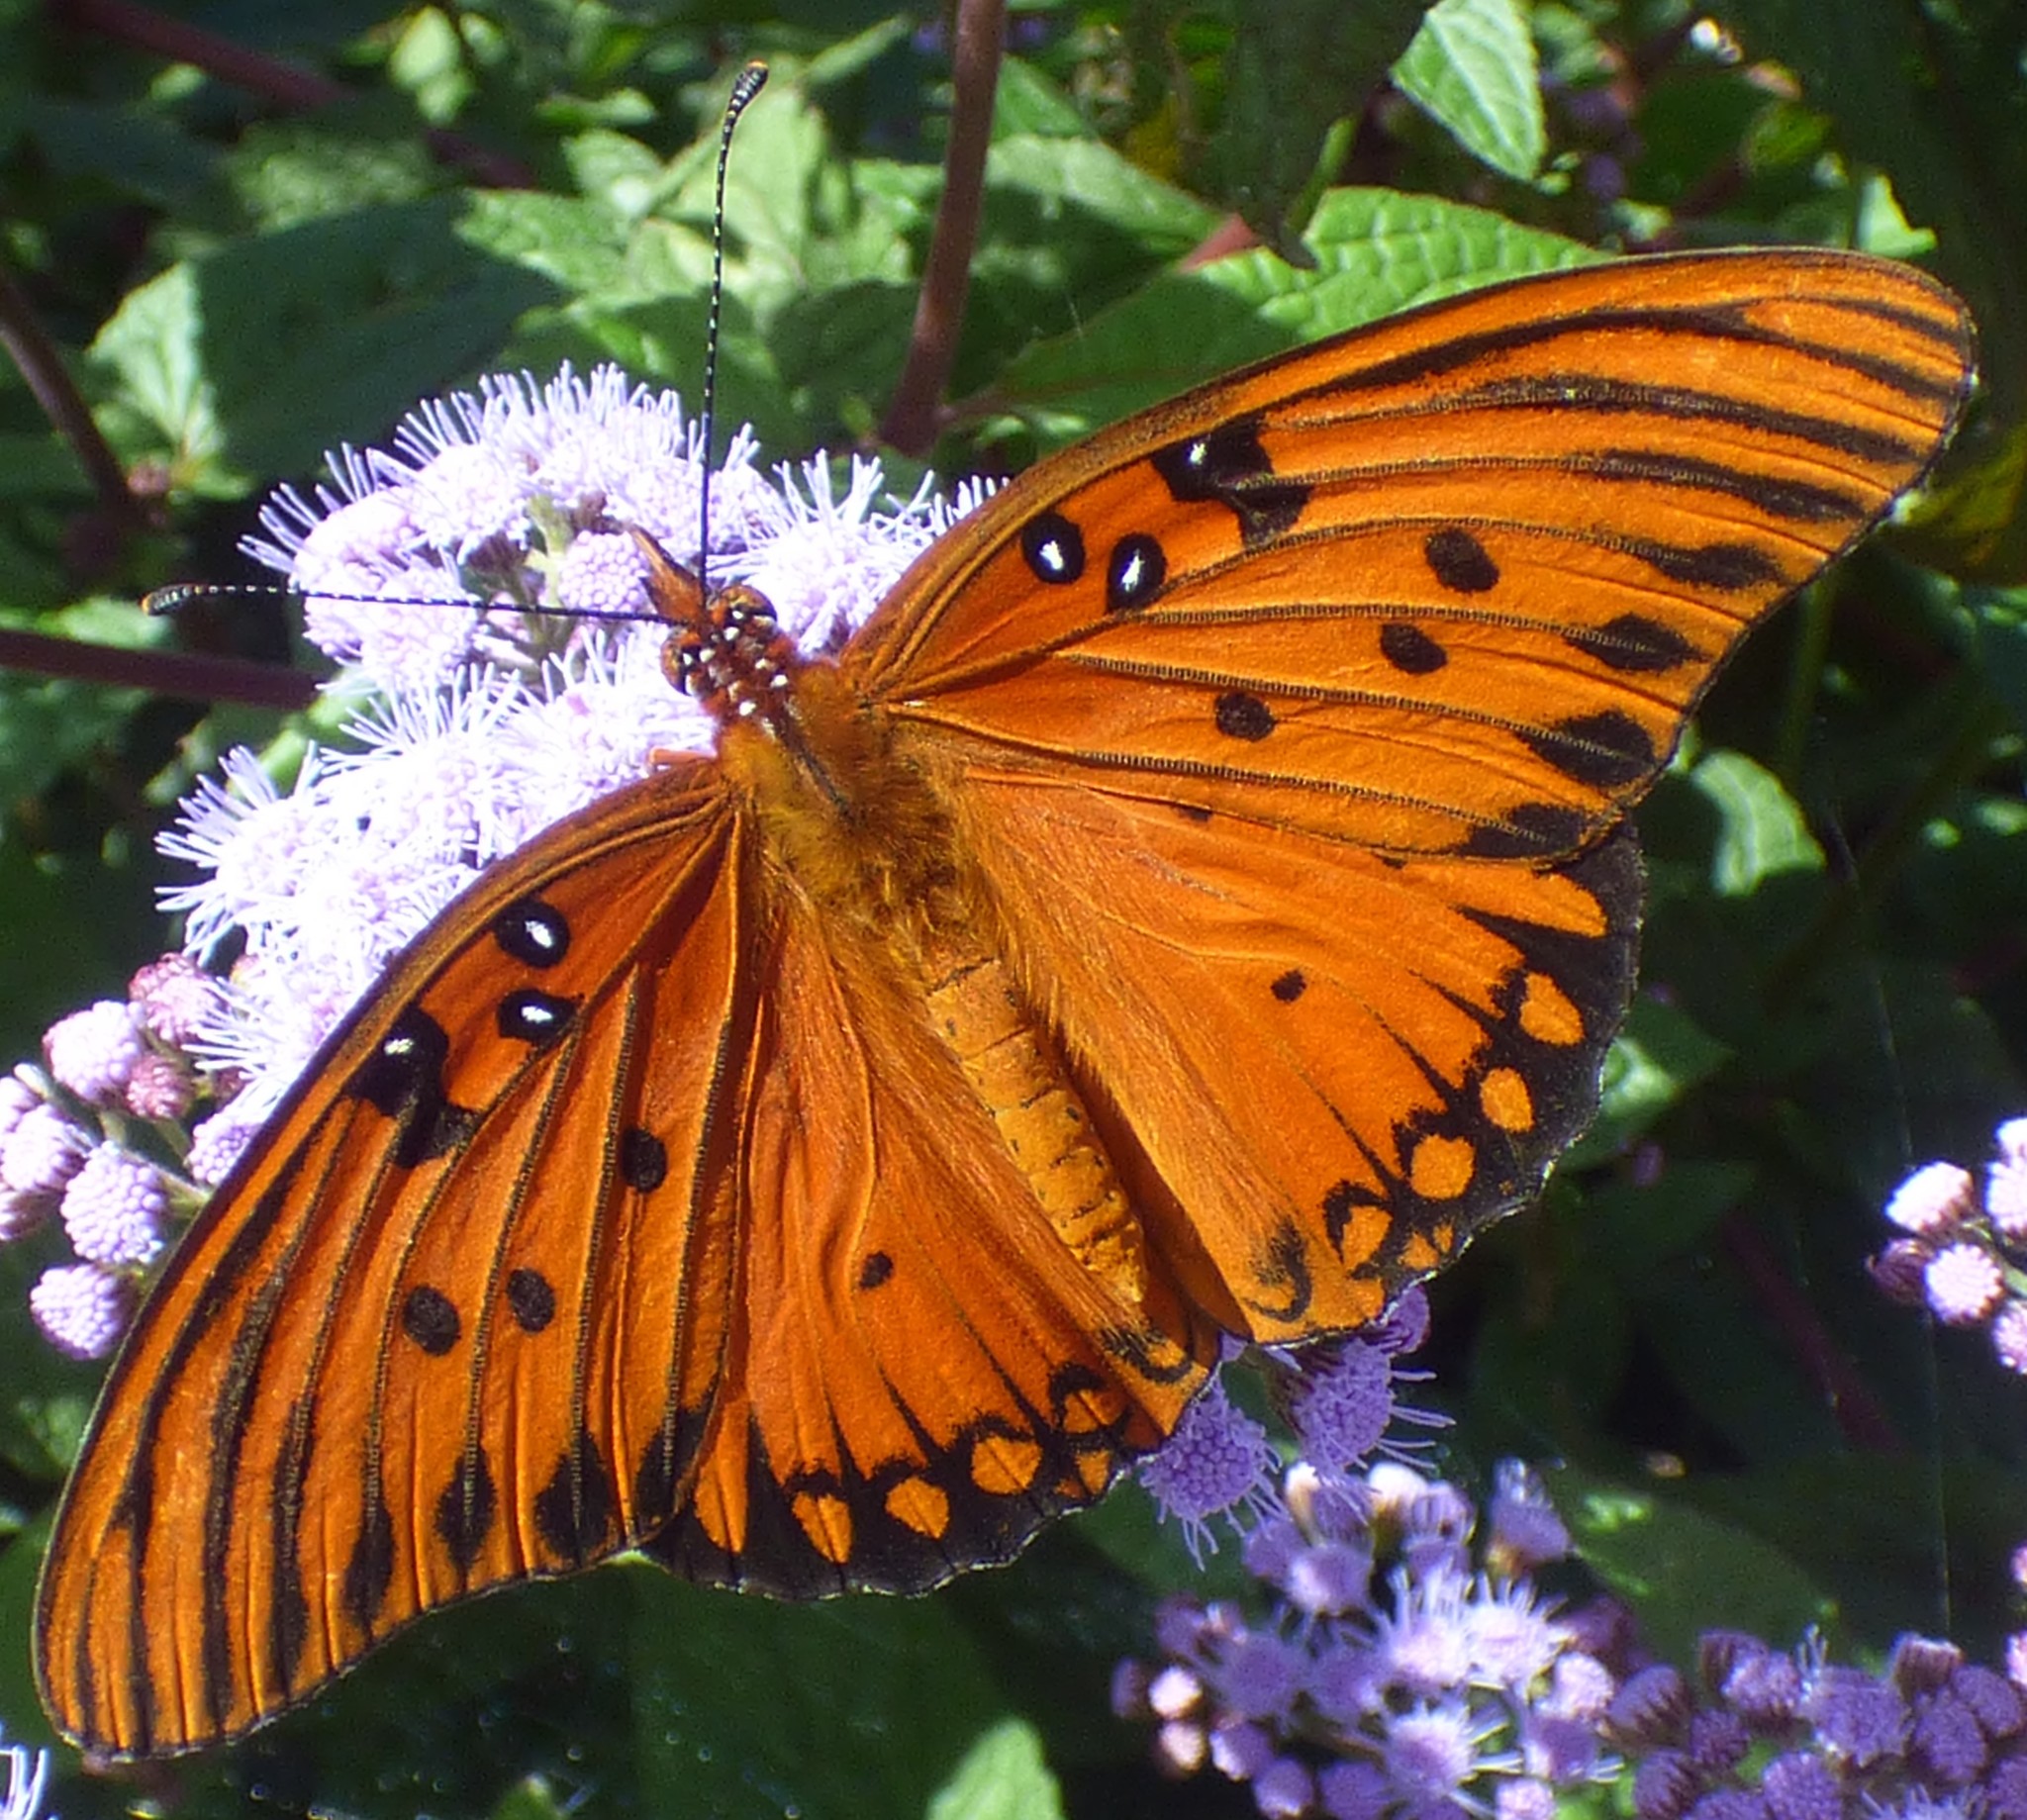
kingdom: Animalia
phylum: Arthropoda
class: Insecta
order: Lepidoptera
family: Nymphalidae
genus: Dione
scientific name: Dione vanillae
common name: Gulf fritillary
